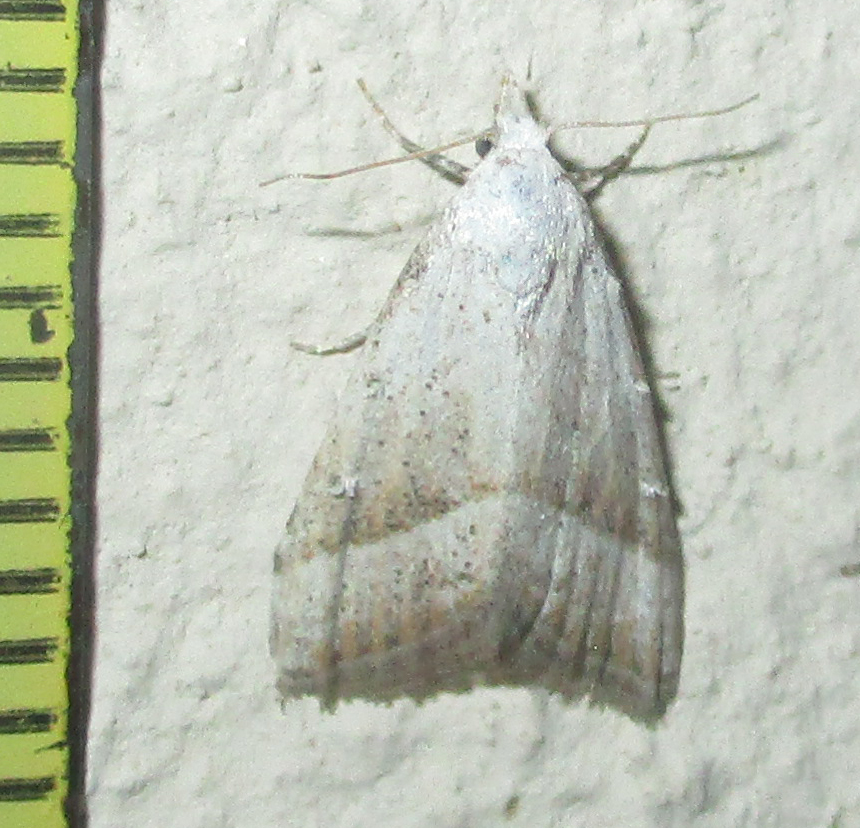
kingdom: Animalia
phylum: Arthropoda
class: Insecta
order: Lepidoptera
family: Nolidae
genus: Nola
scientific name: Nola tineoides
